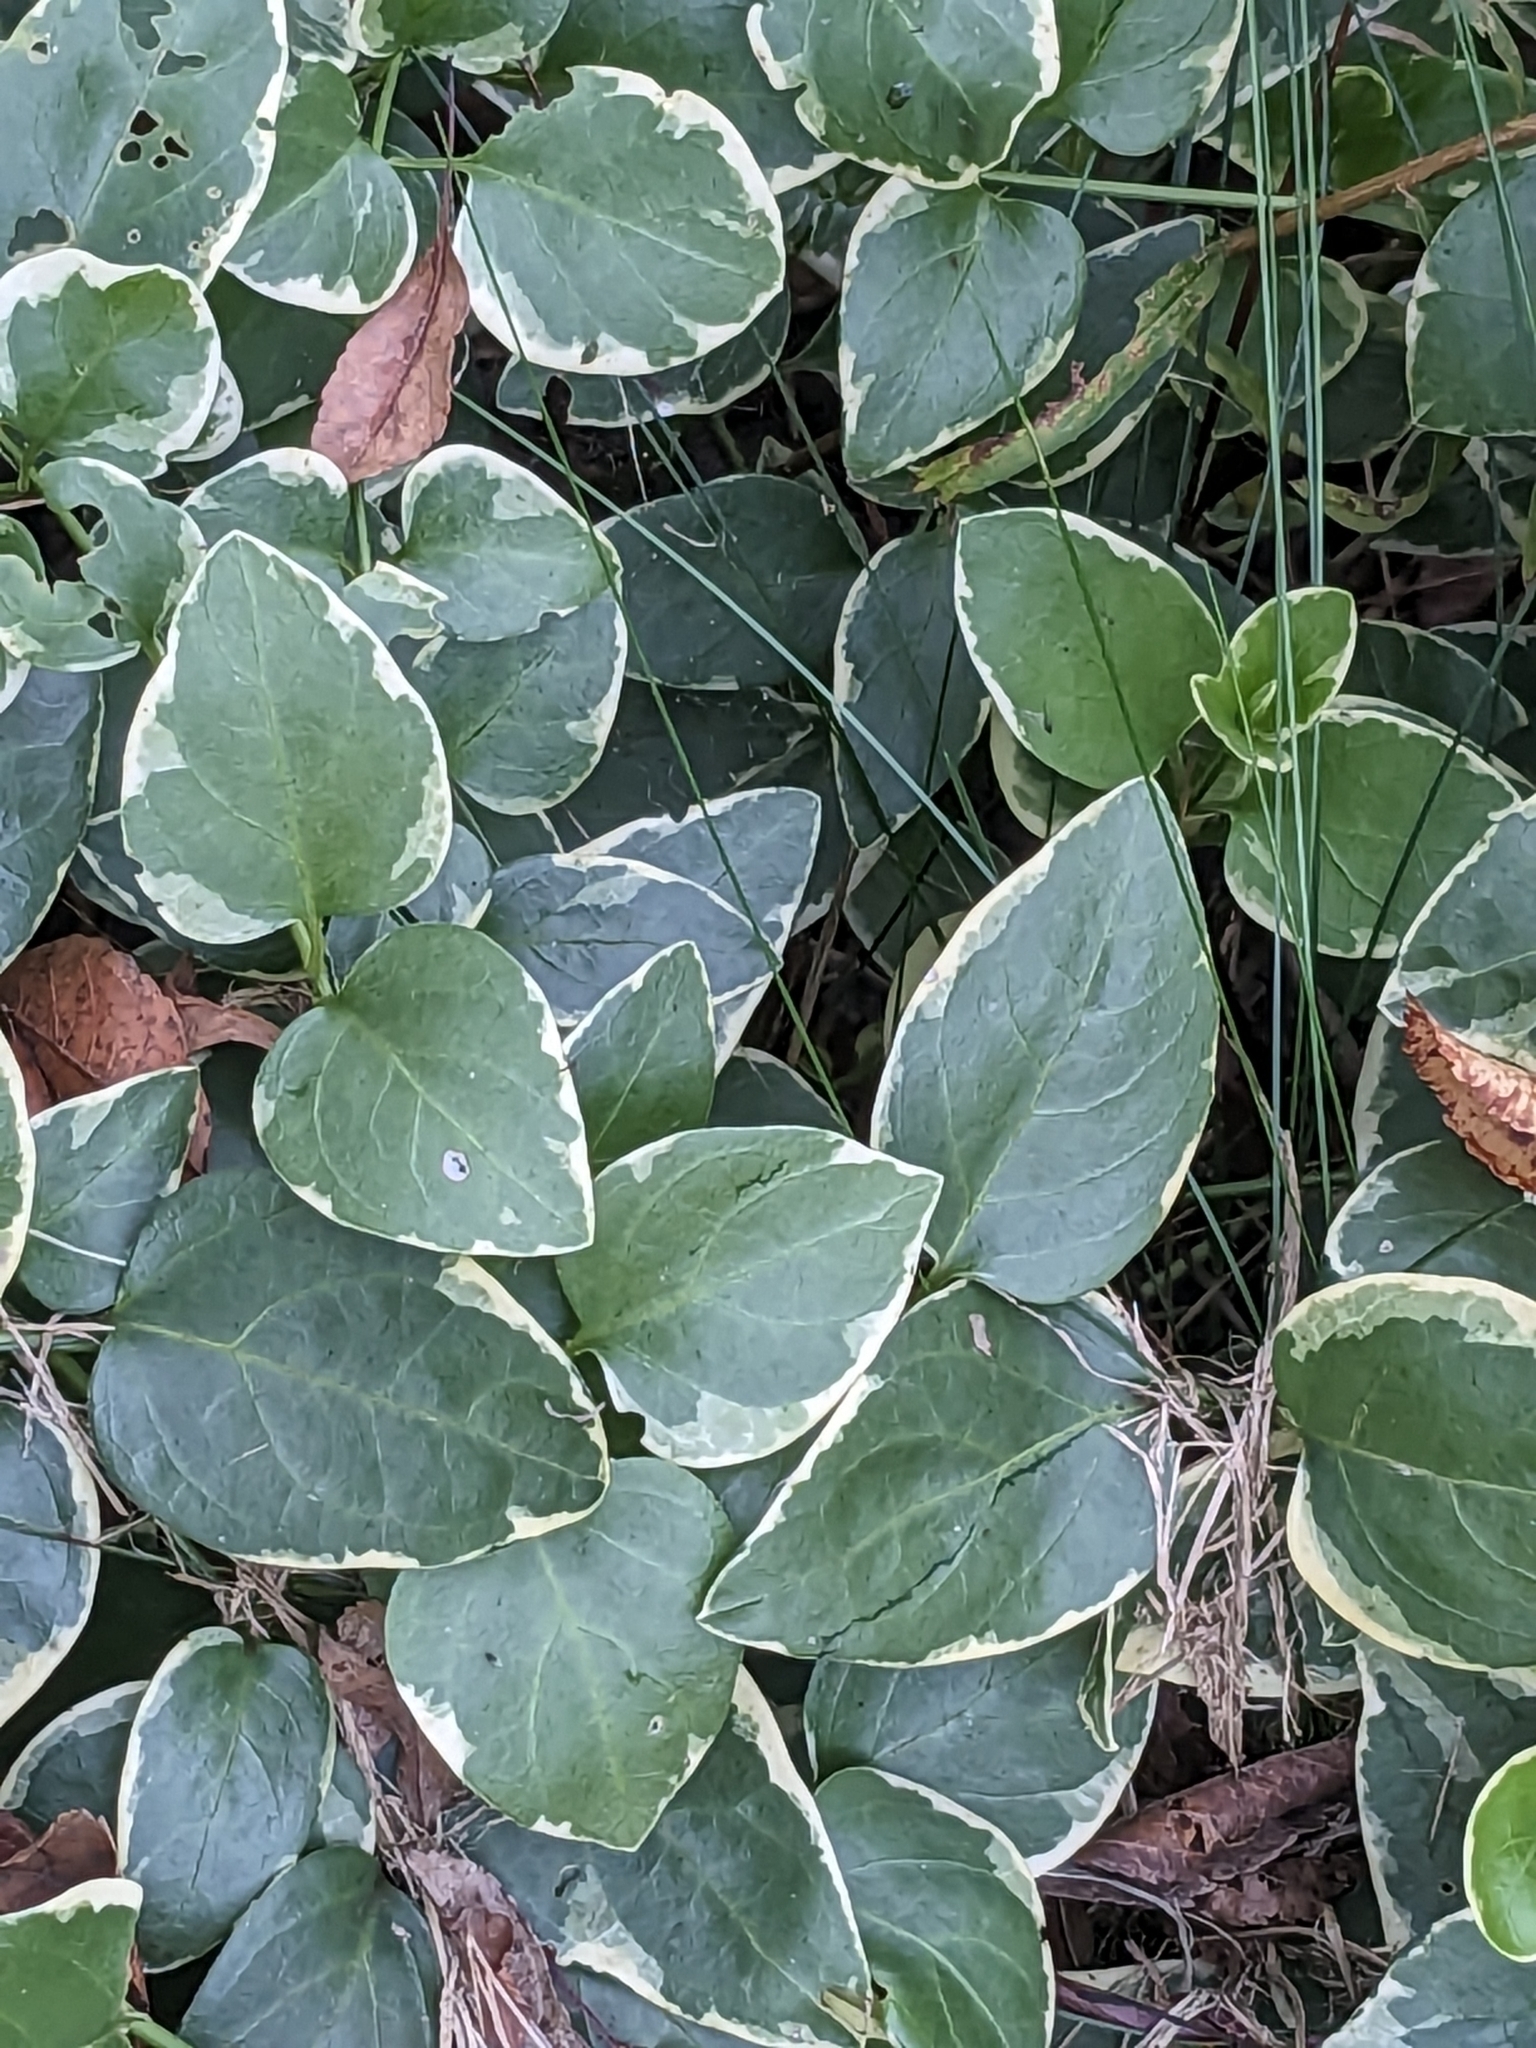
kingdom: Plantae
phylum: Tracheophyta
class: Magnoliopsida
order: Gentianales
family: Apocynaceae
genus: Vinca
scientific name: Vinca major
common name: Greater periwinkle
